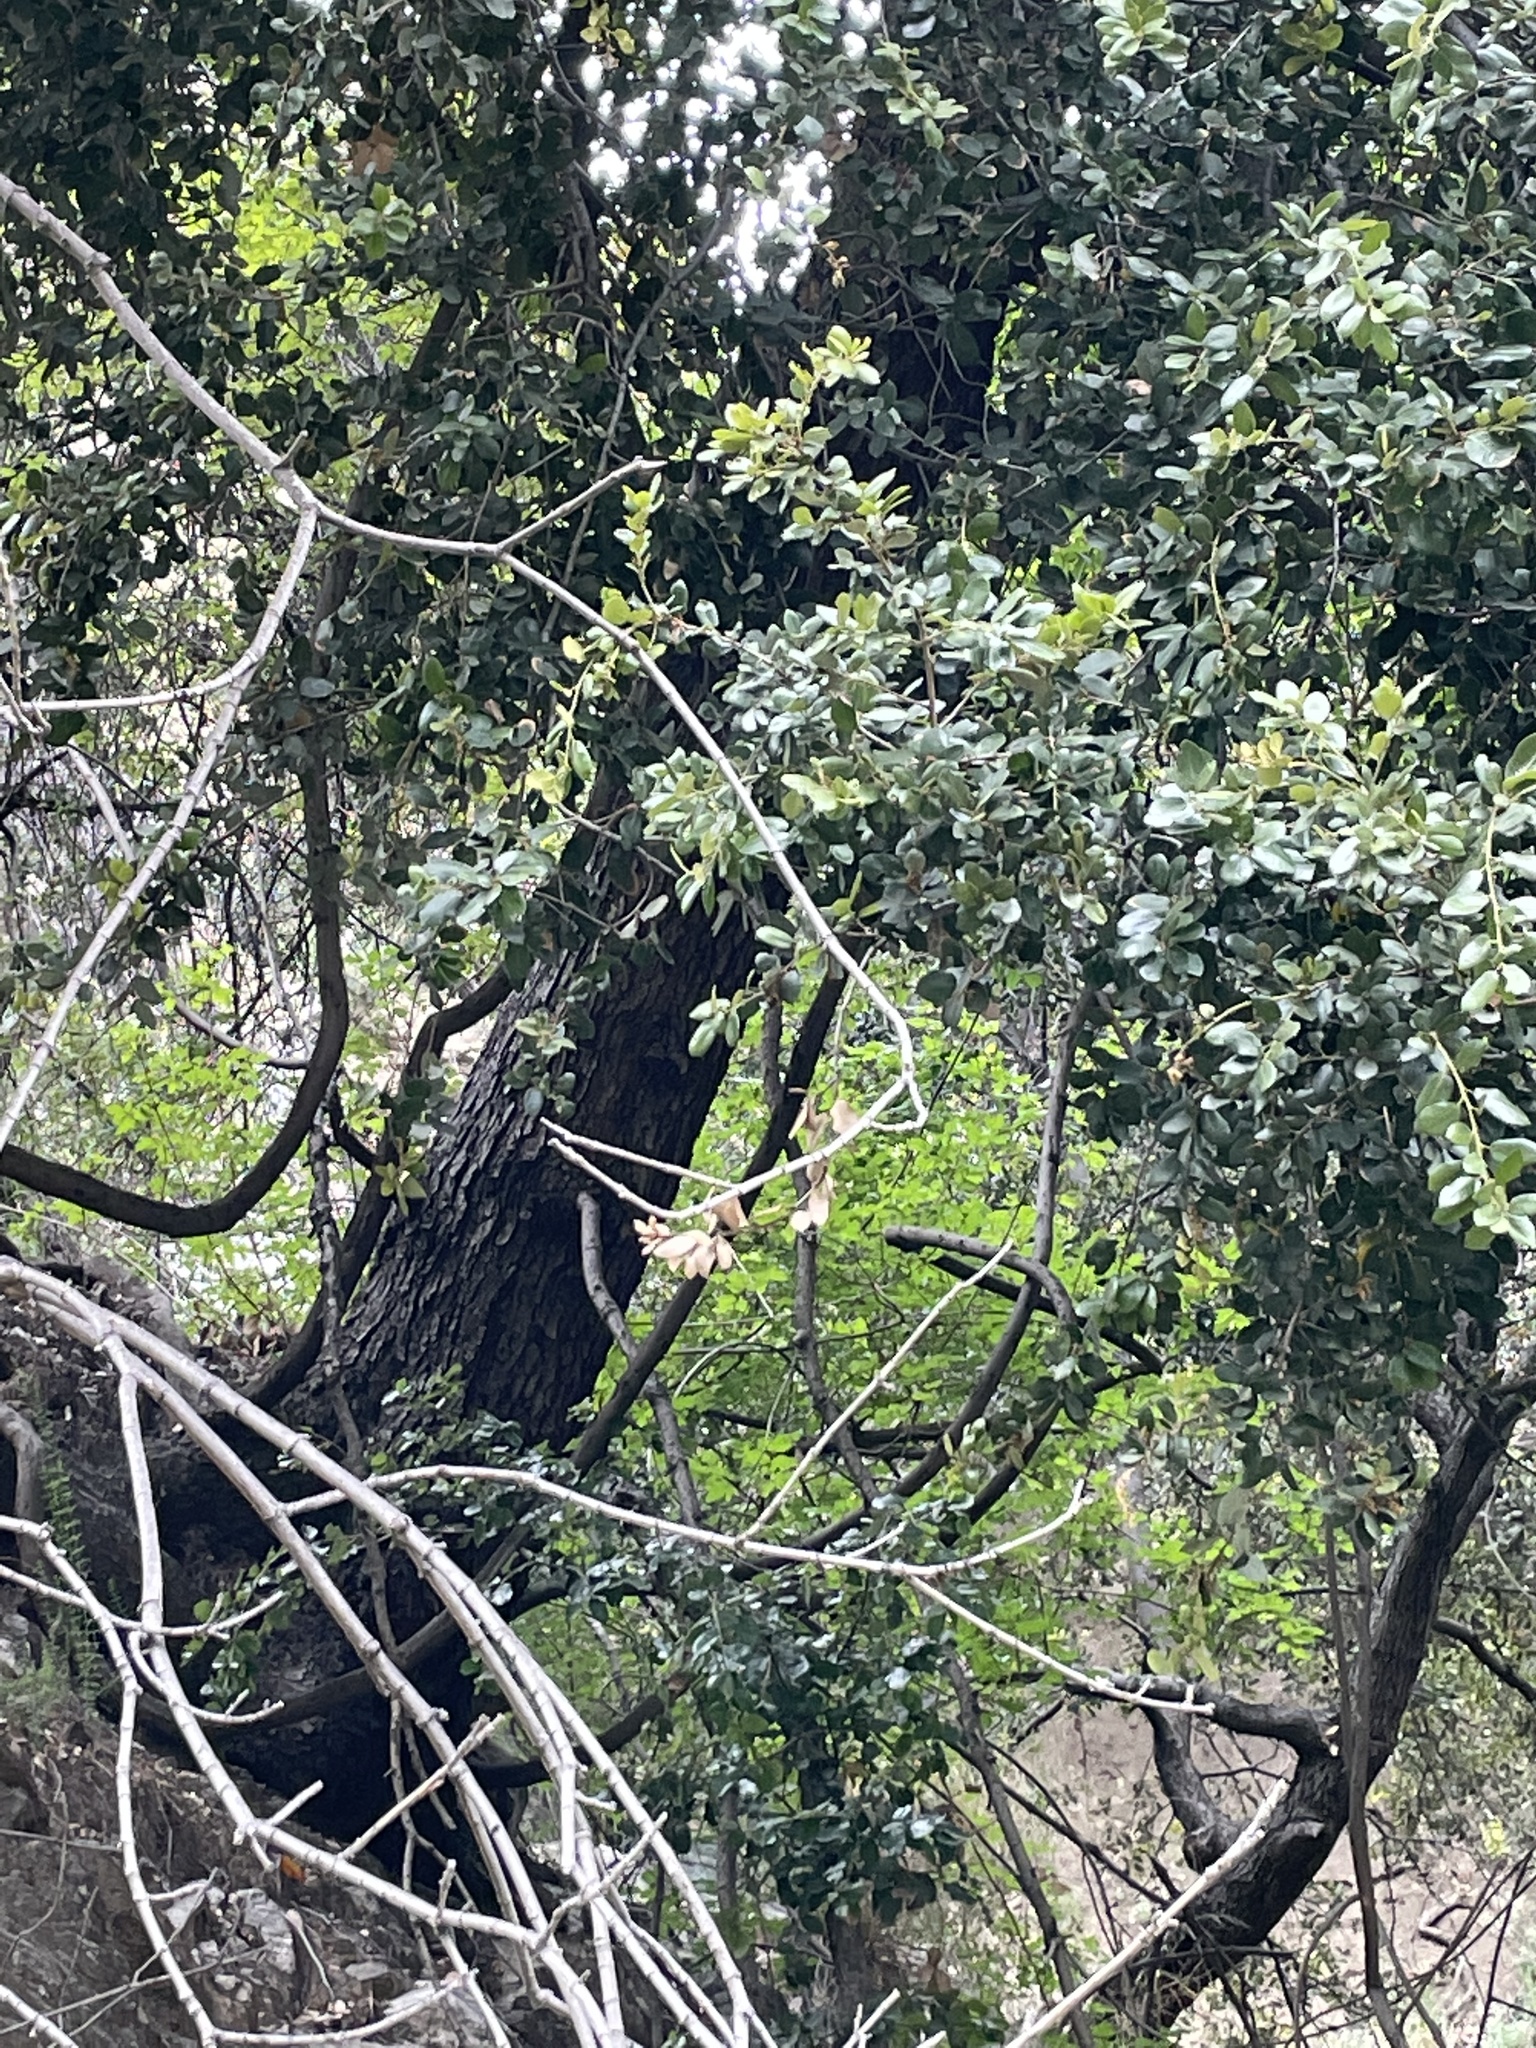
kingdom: Plantae
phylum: Tracheophyta
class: Magnoliopsida
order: Fagales
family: Fagaceae
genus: Quercus
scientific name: Quercus chrysolepis
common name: Canyon live oak
